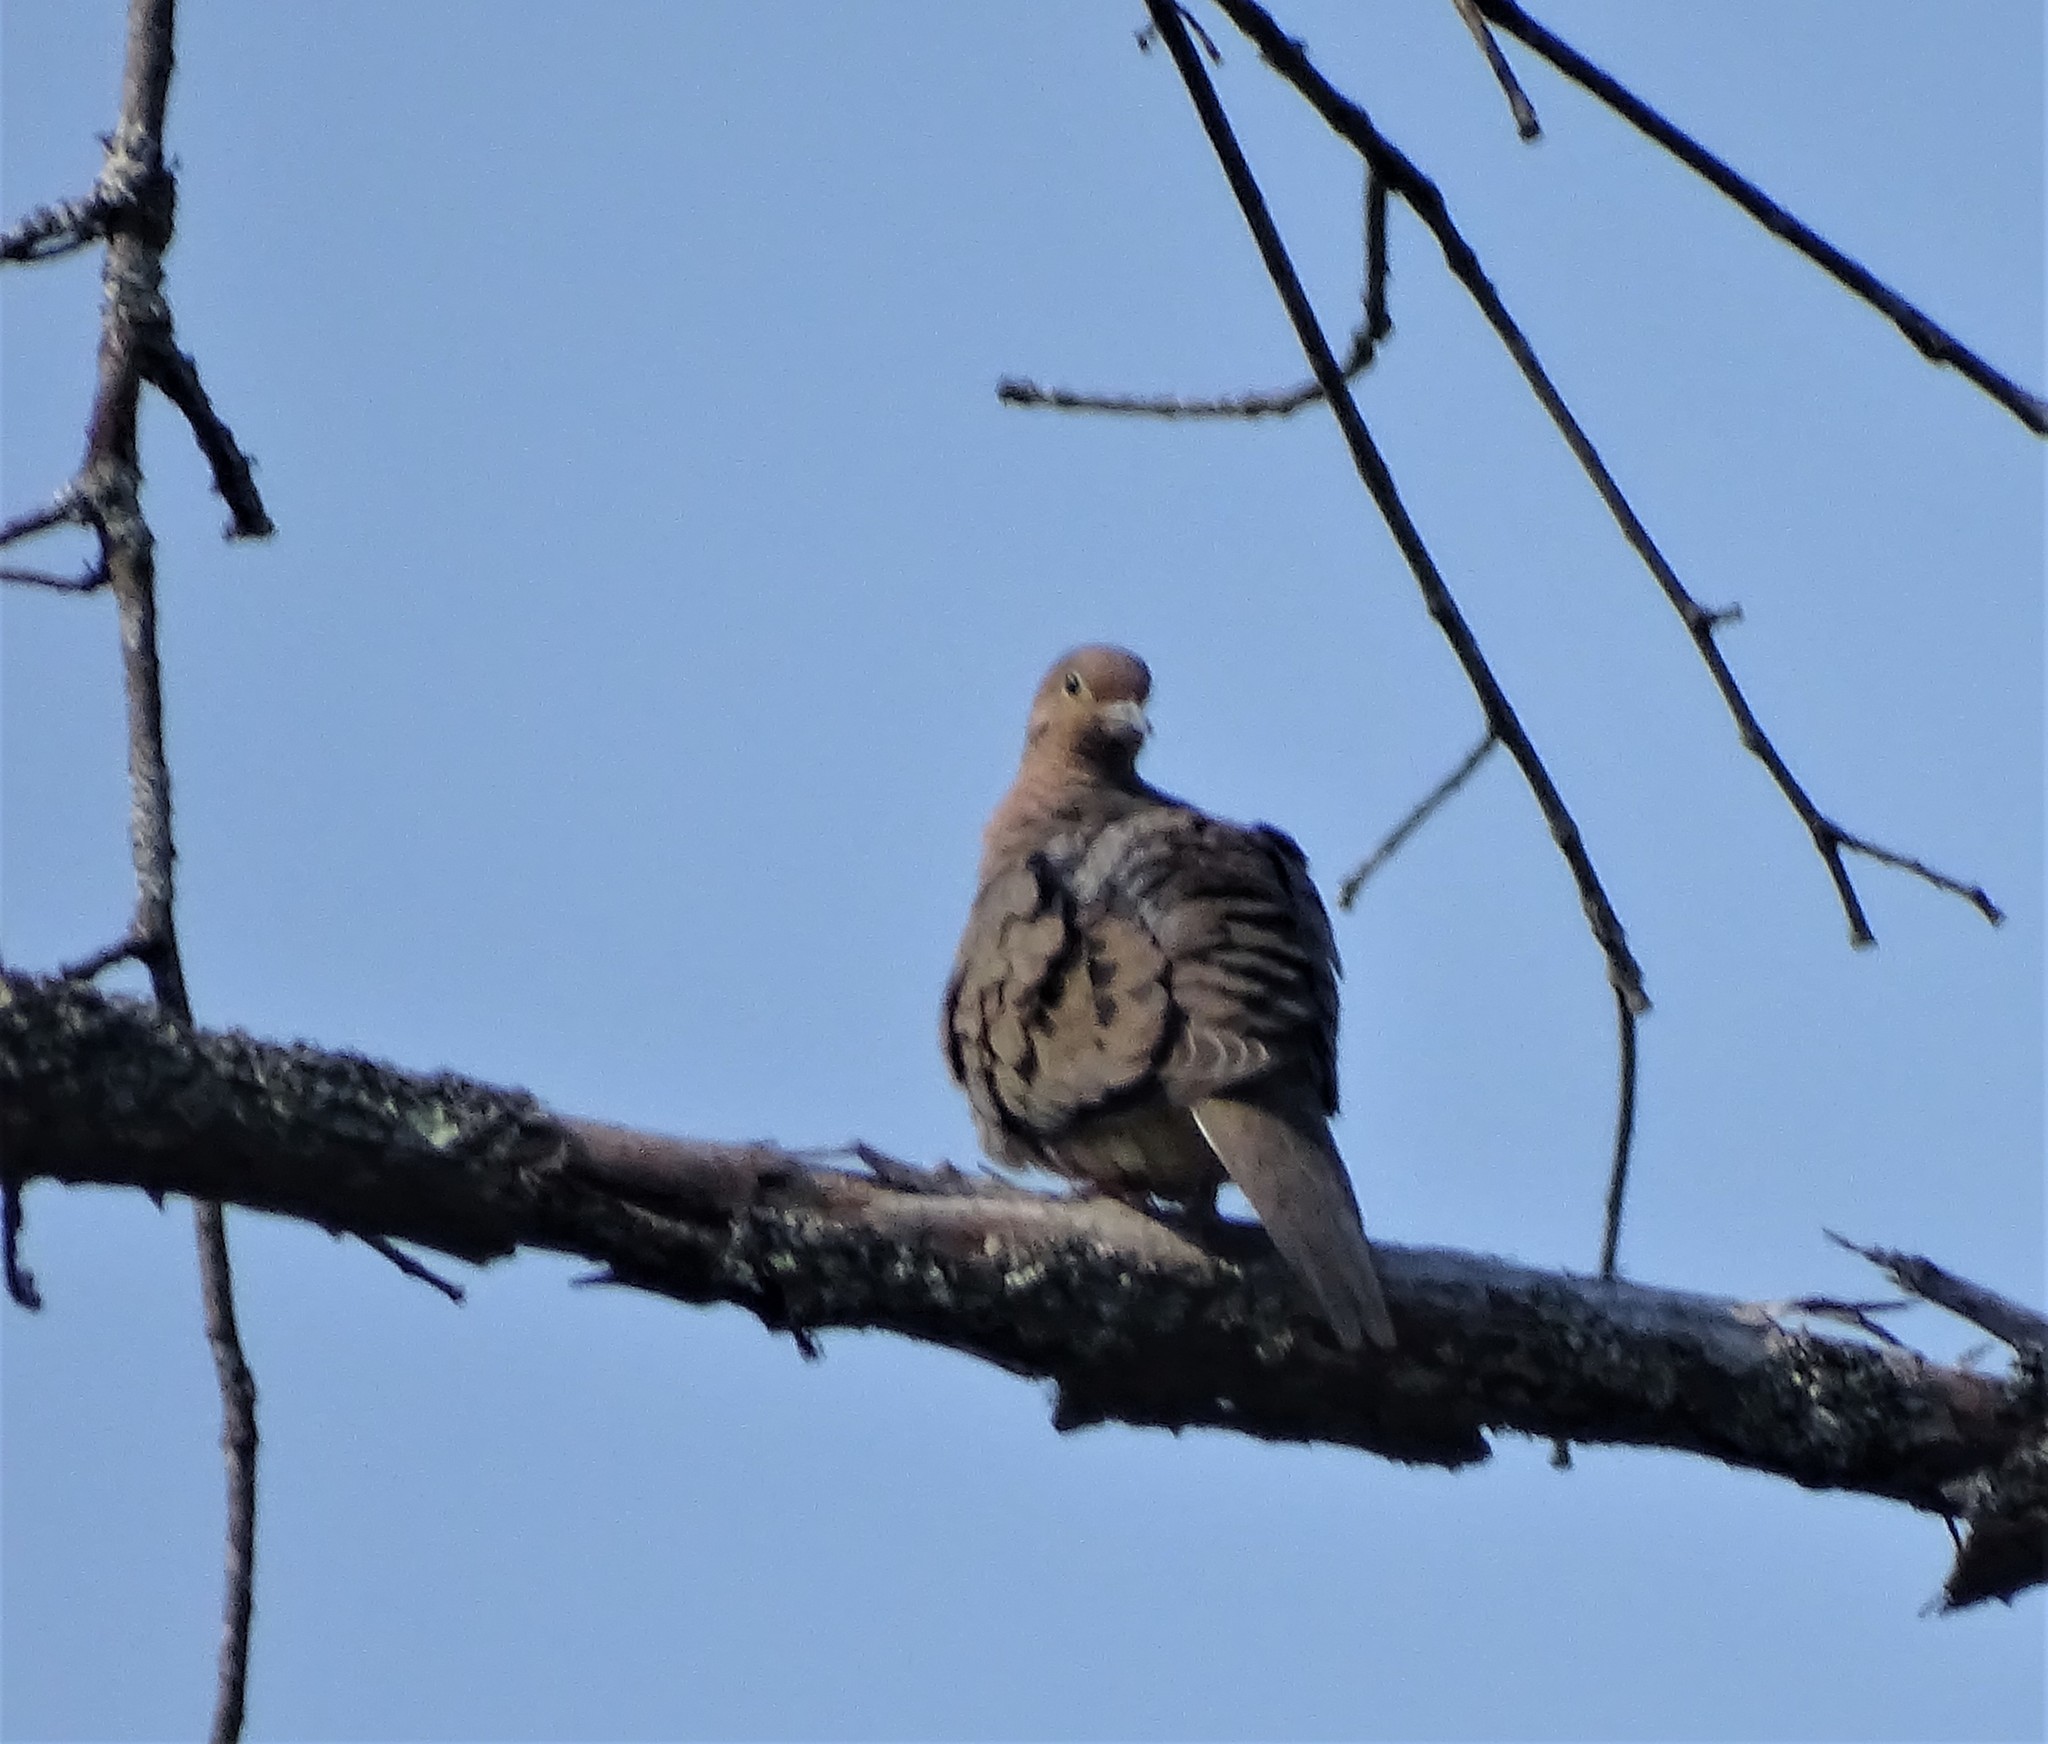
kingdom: Animalia
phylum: Chordata
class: Aves
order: Columbiformes
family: Columbidae
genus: Zenaida
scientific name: Zenaida macroura
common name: Mourning dove
